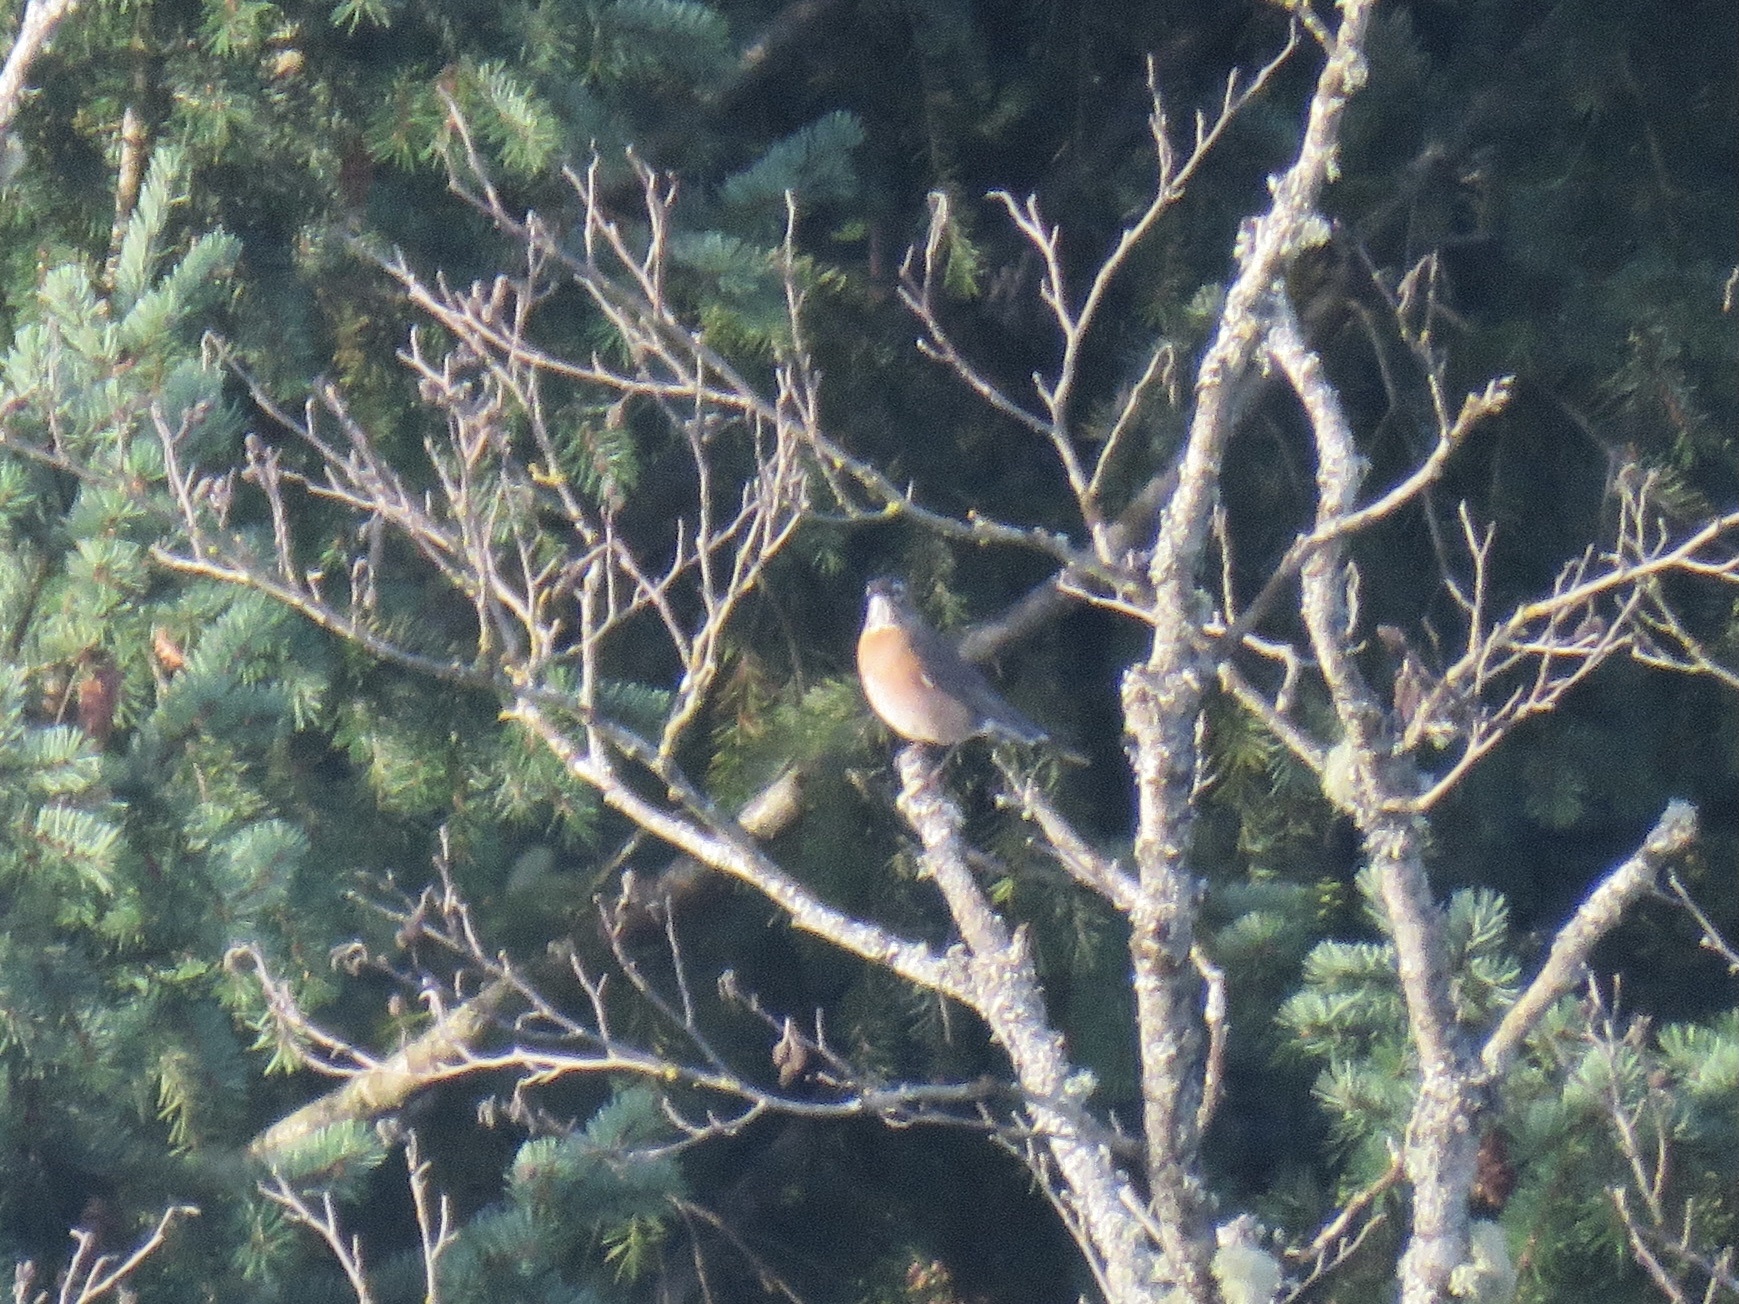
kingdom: Animalia
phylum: Chordata
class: Aves
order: Passeriformes
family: Turdidae
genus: Turdus
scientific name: Turdus migratorius
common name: American robin
